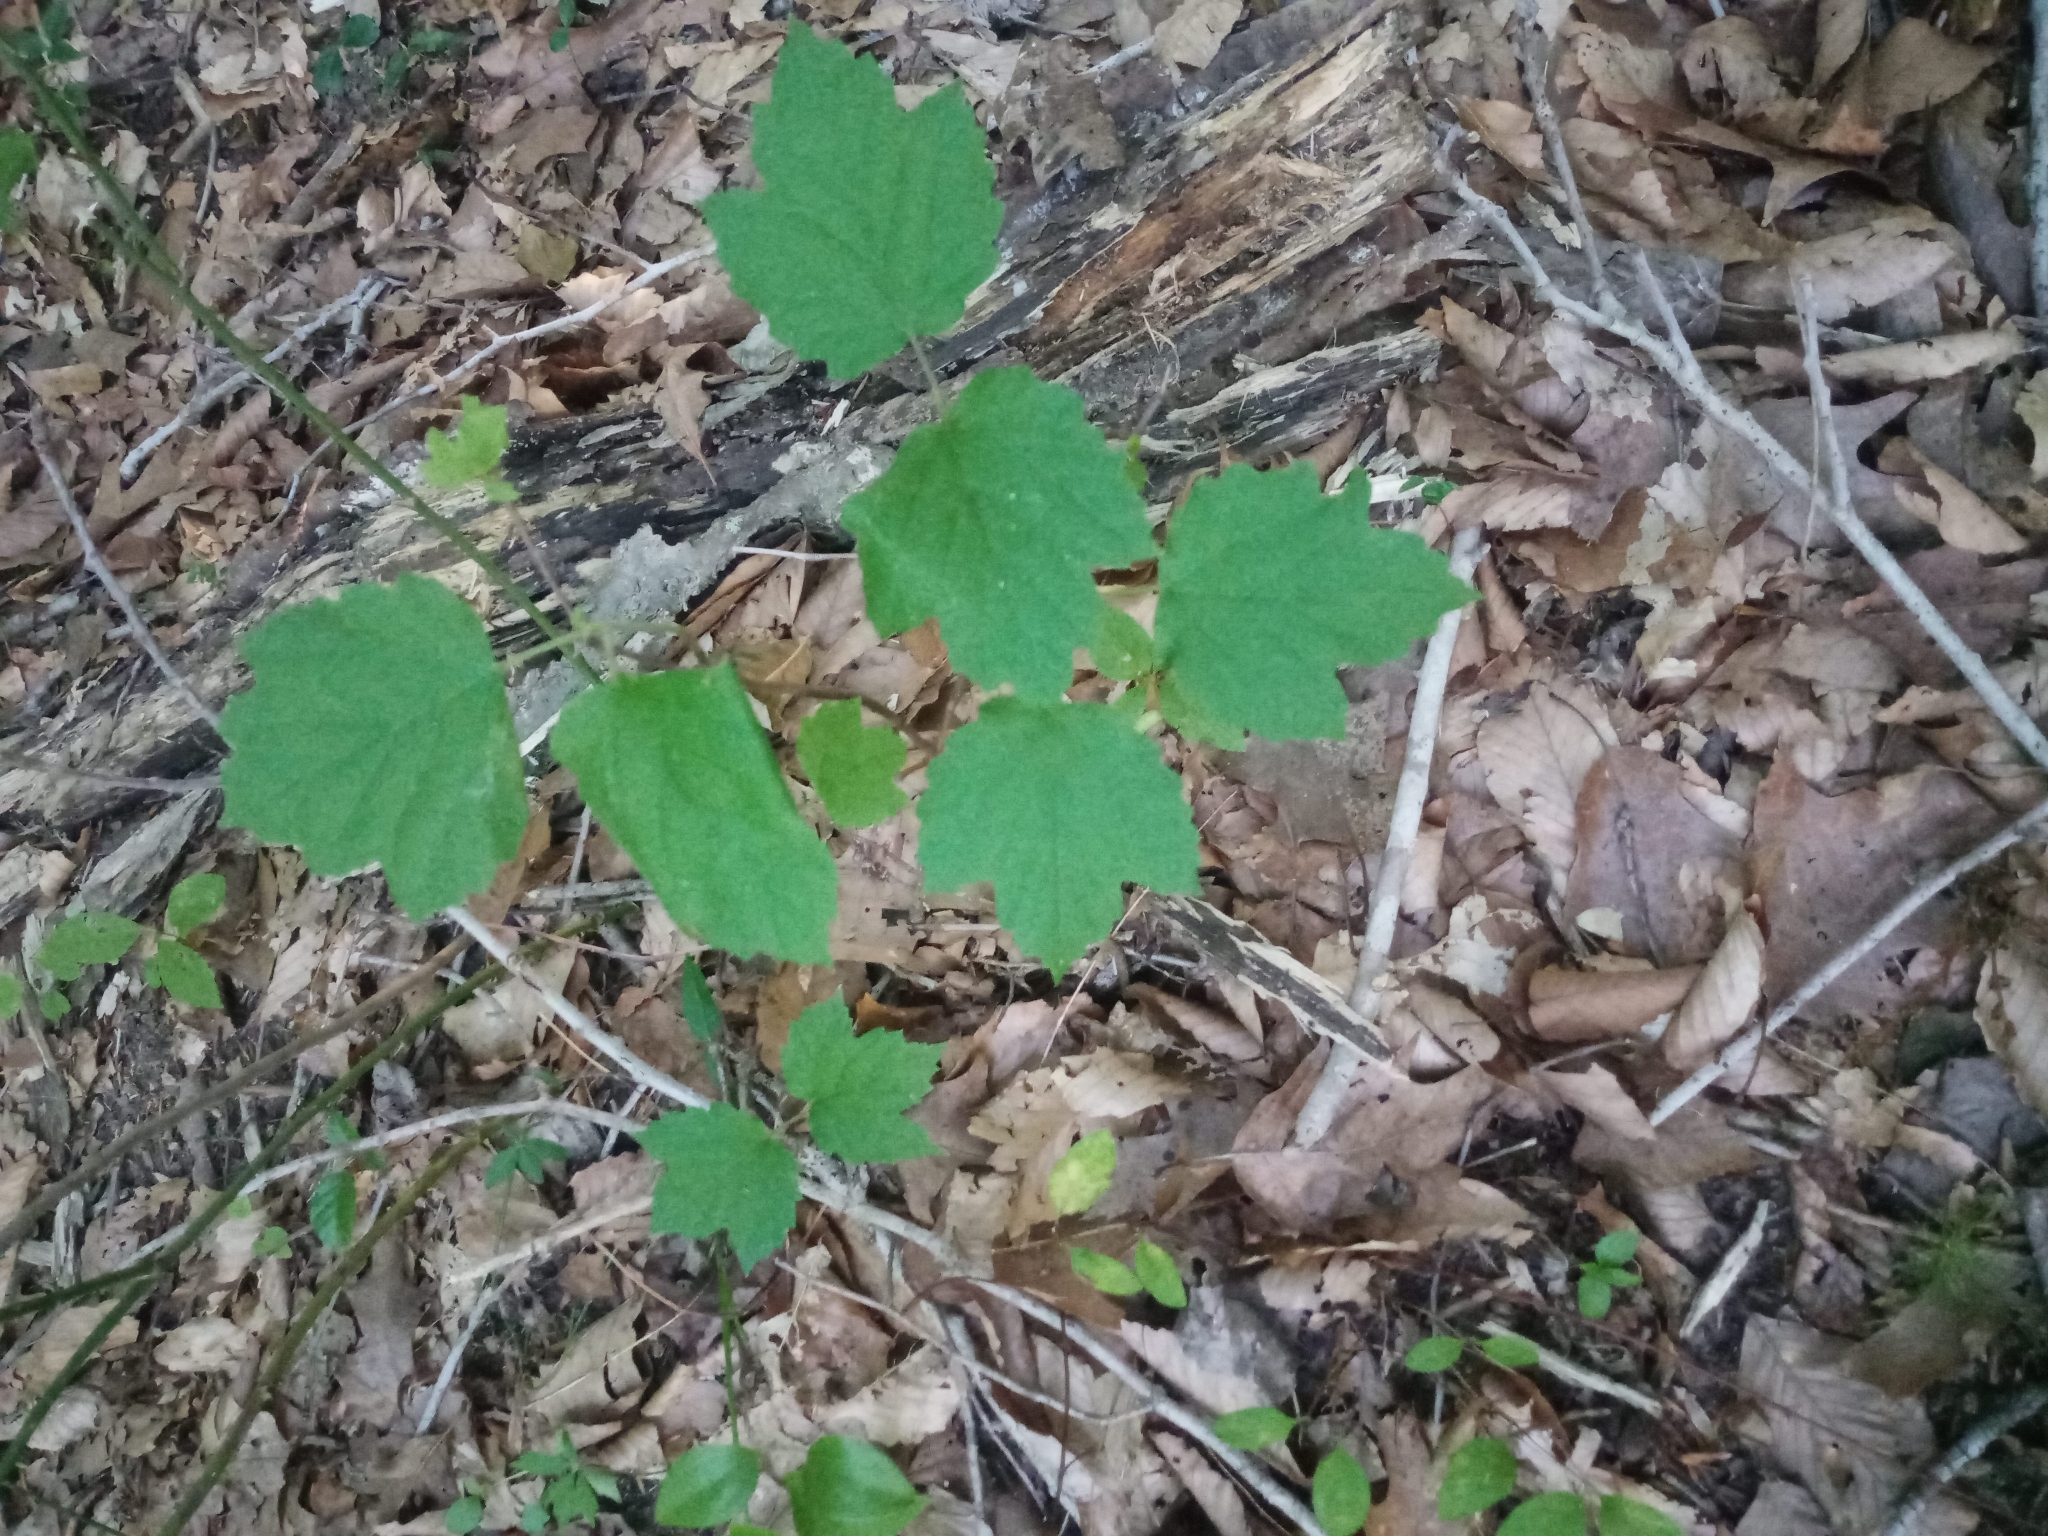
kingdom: Plantae
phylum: Tracheophyta
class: Magnoliopsida
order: Dipsacales
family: Viburnaceae
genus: Viburnum
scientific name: Viburnum acerifolium
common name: Dockmackie
